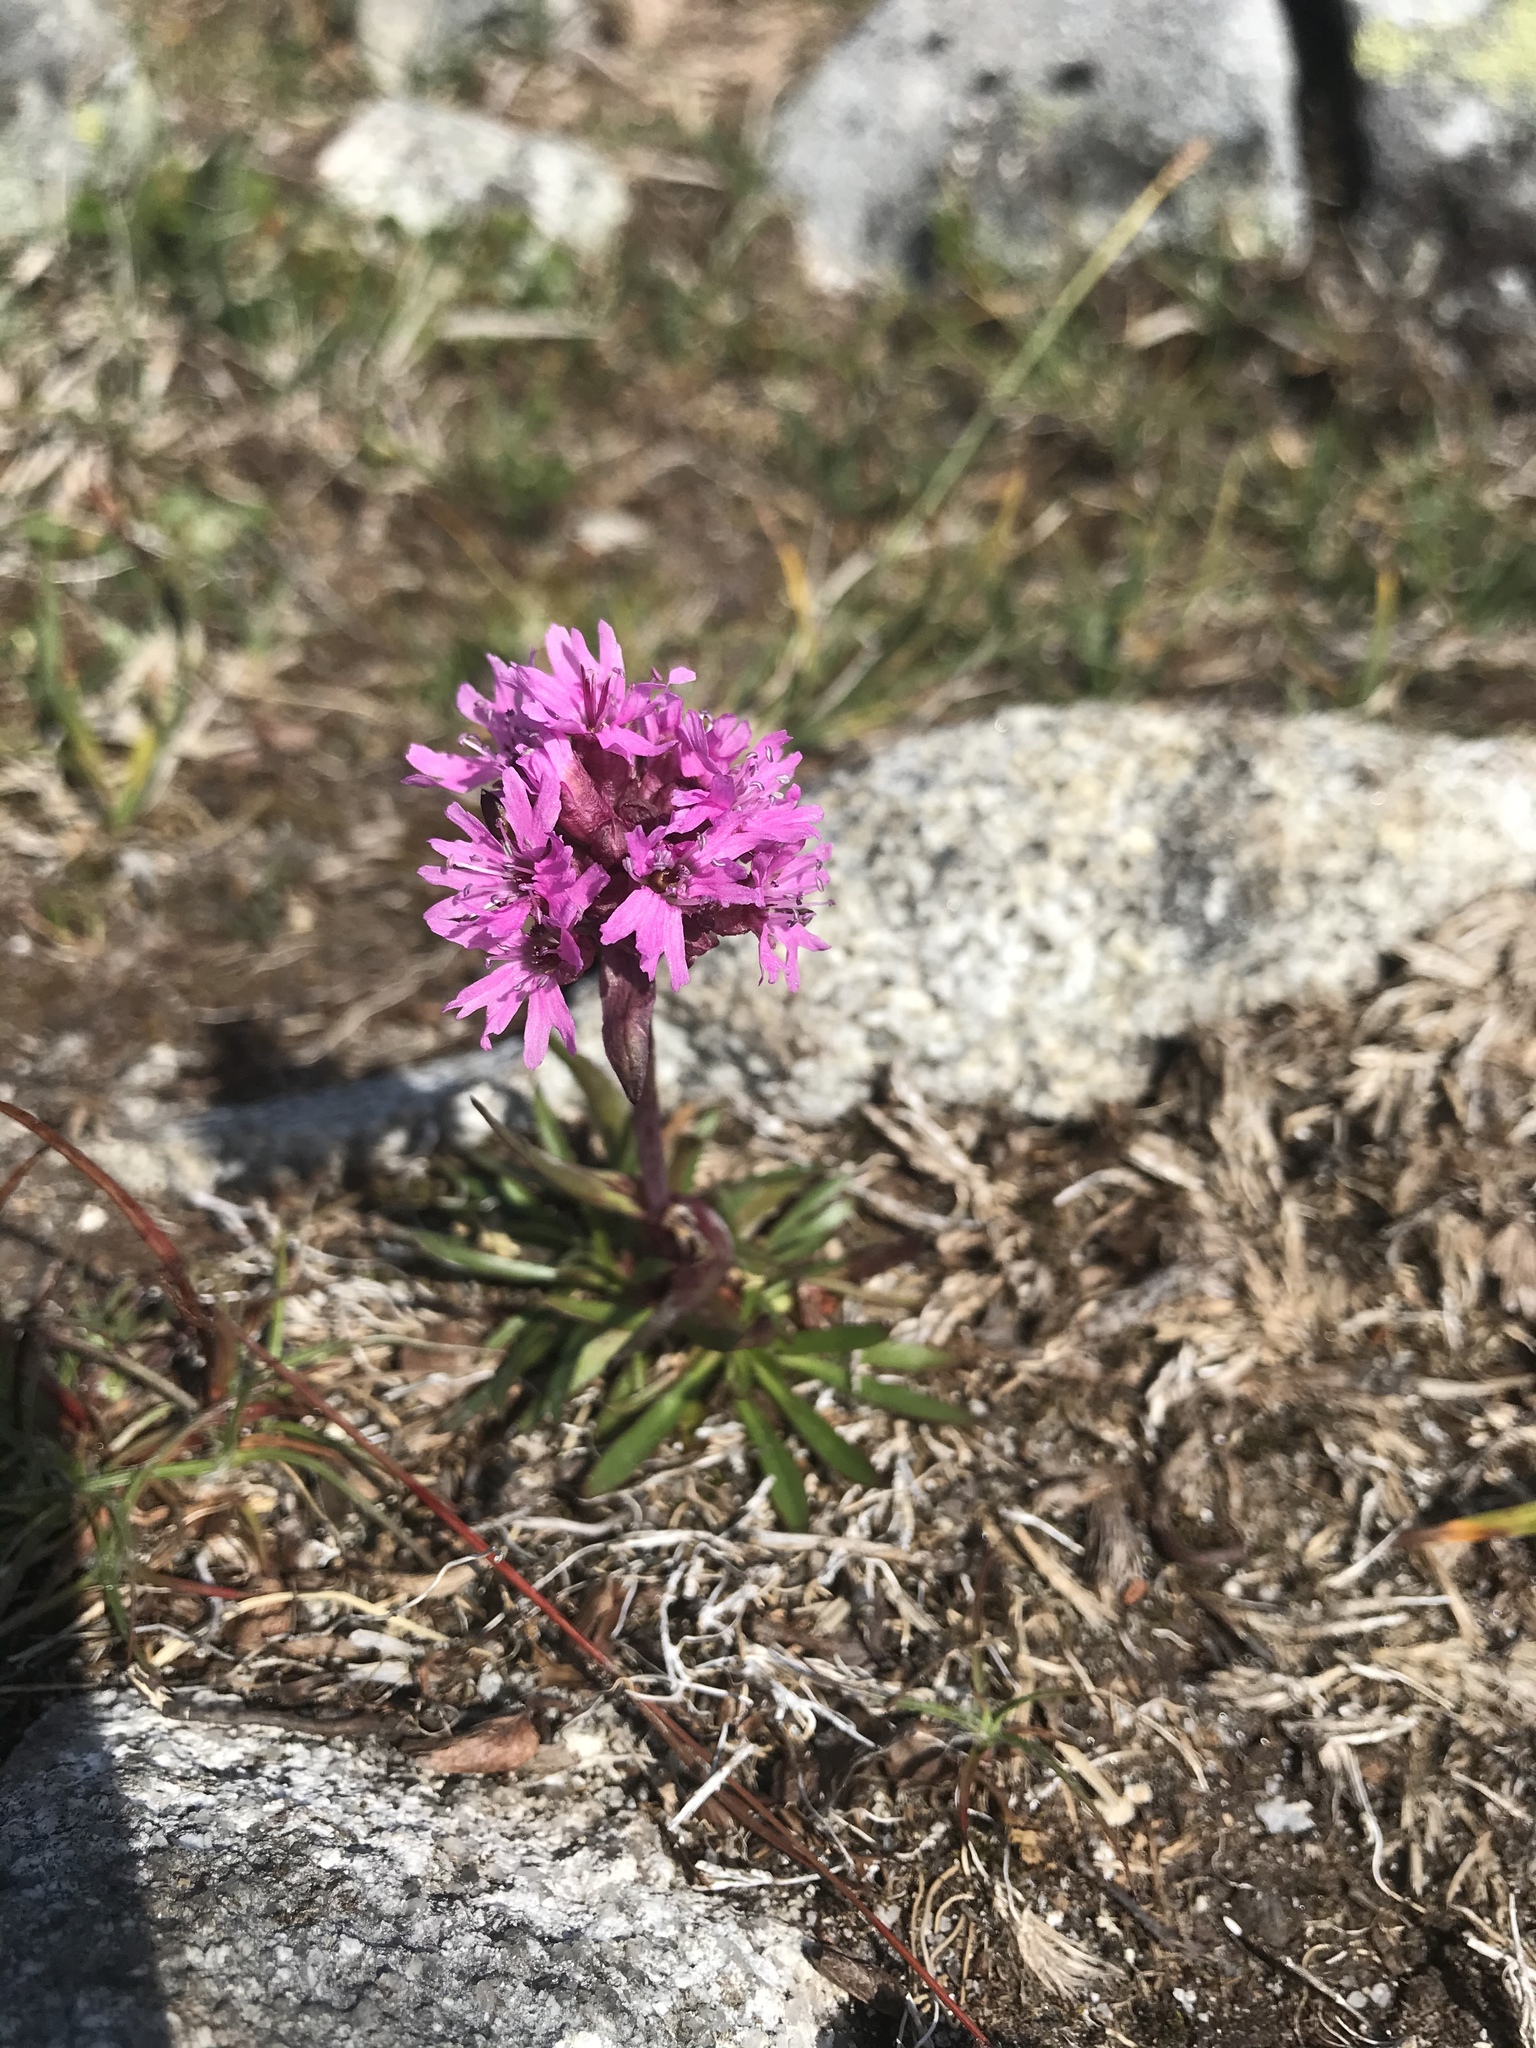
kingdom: Plantae
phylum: Tracheophyta
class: Magnoliopsida
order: Caryophyllales
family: Caryophyllaceae
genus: Viscaria
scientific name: Viscaria alpina
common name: Alpine campion
